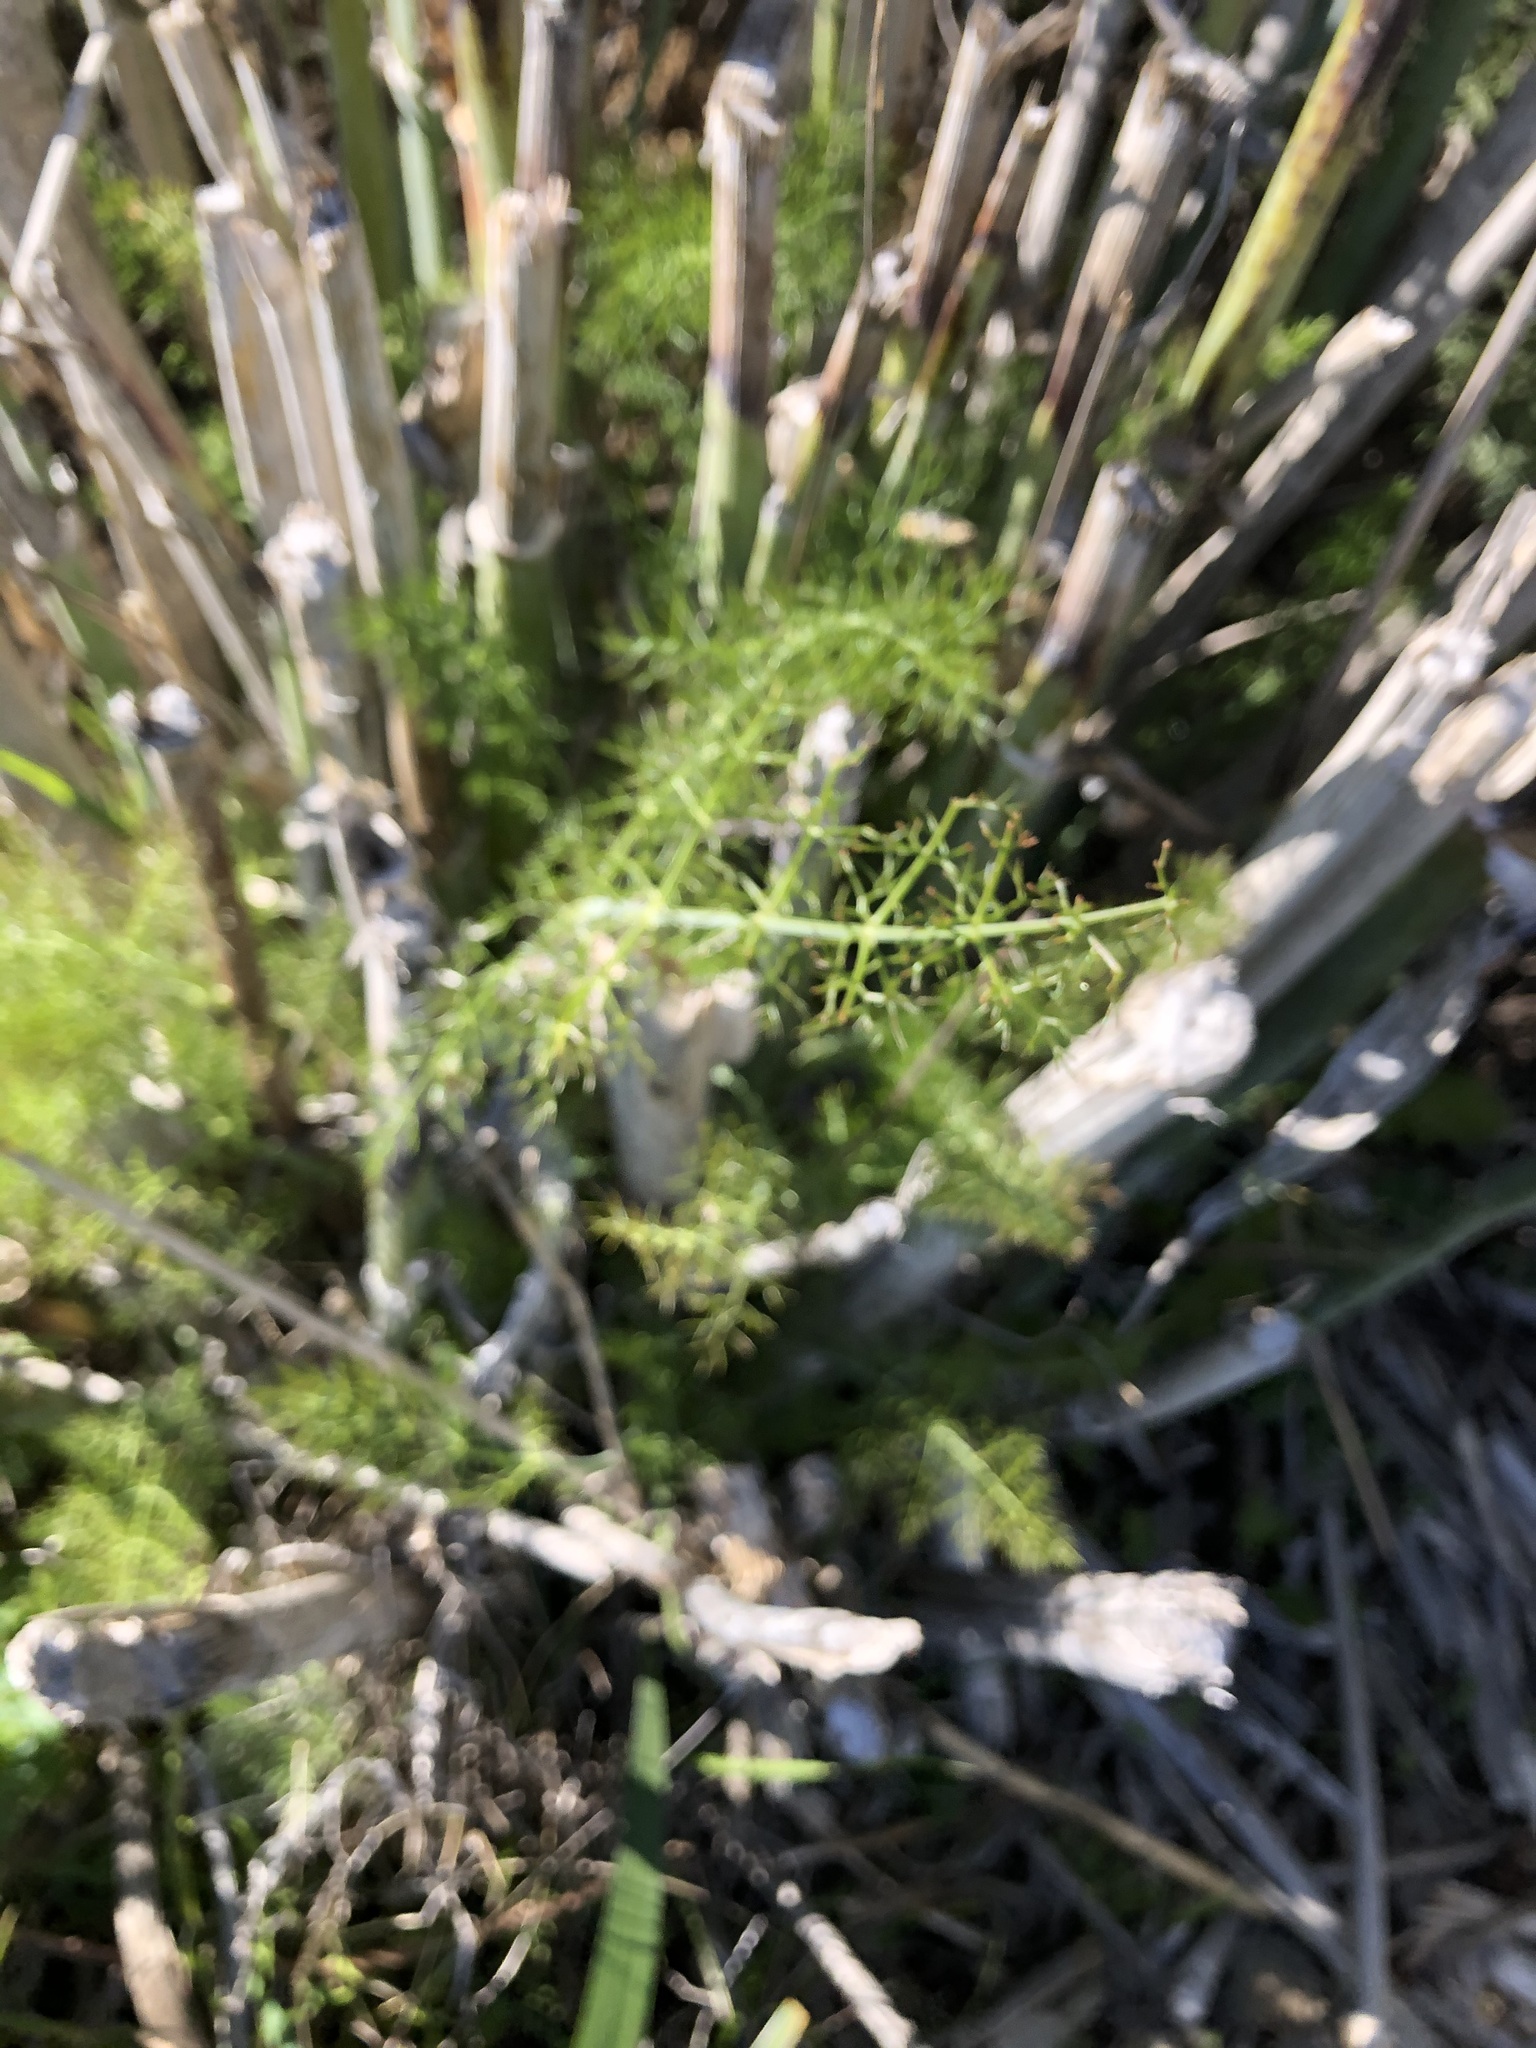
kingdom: Plantae
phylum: Tracheophyta
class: Magnoliopsida
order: Apiales
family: Apiaceae
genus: Foeniculum
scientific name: Foeniculum vulgare
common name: Fennel
